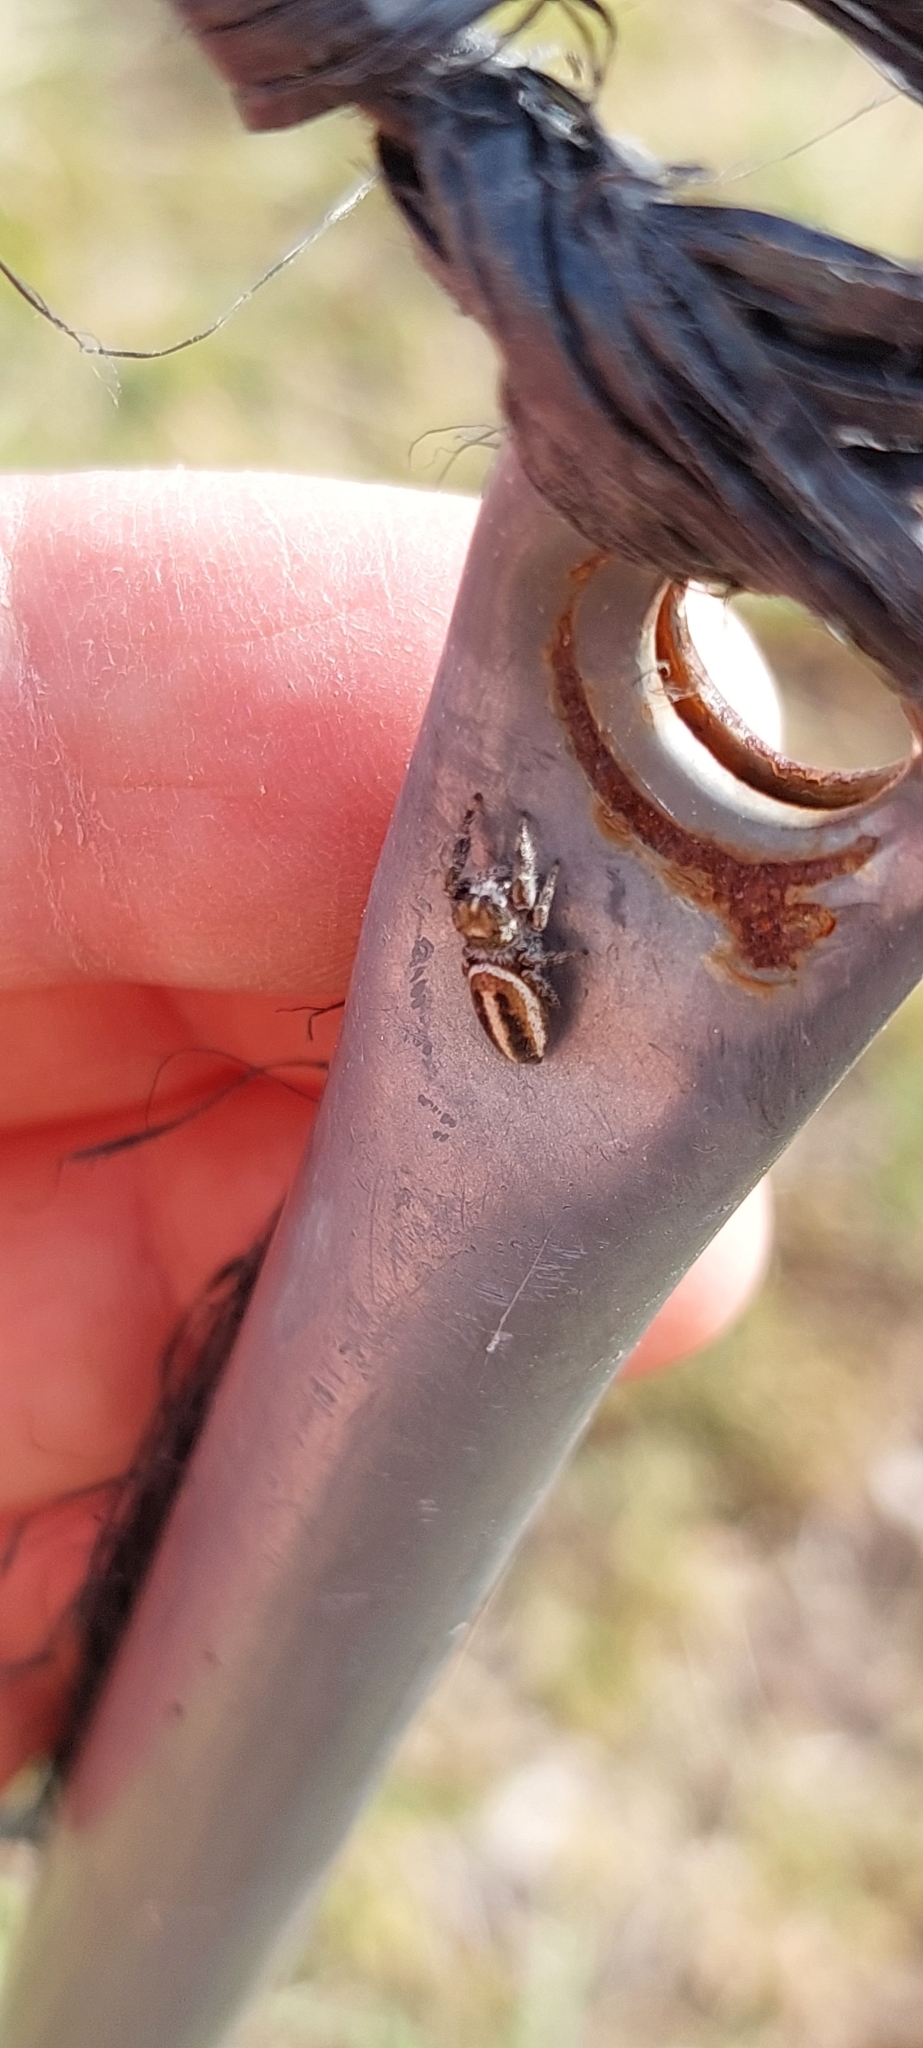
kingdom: Animalia
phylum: Arthropoda
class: Arachnida
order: Araneae
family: Salticidae
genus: Dendryphantes
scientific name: Dendryphantes mordax
